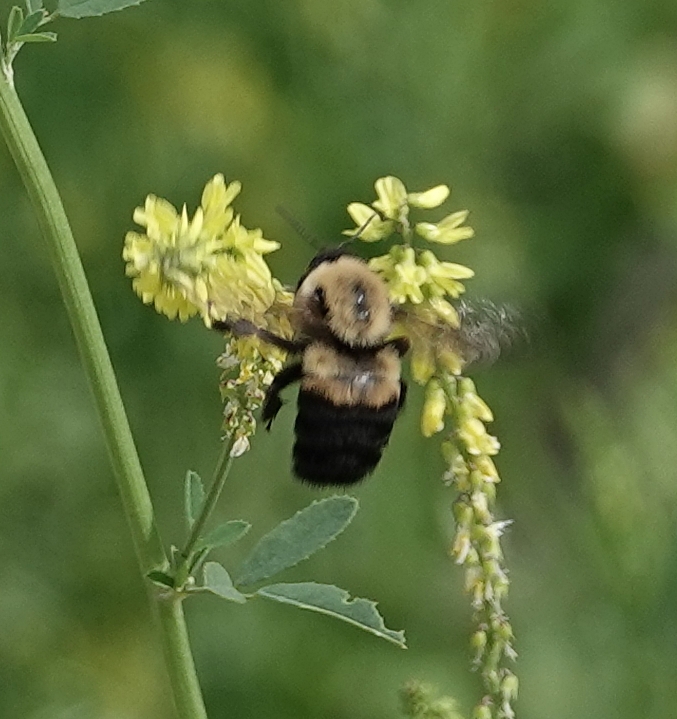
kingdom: Animalia
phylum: Arthropoda
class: Insecta
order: Hymenoptera
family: Apidae
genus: Bombus
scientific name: Bombus griseocollis
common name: Brown-belted bumble bee
